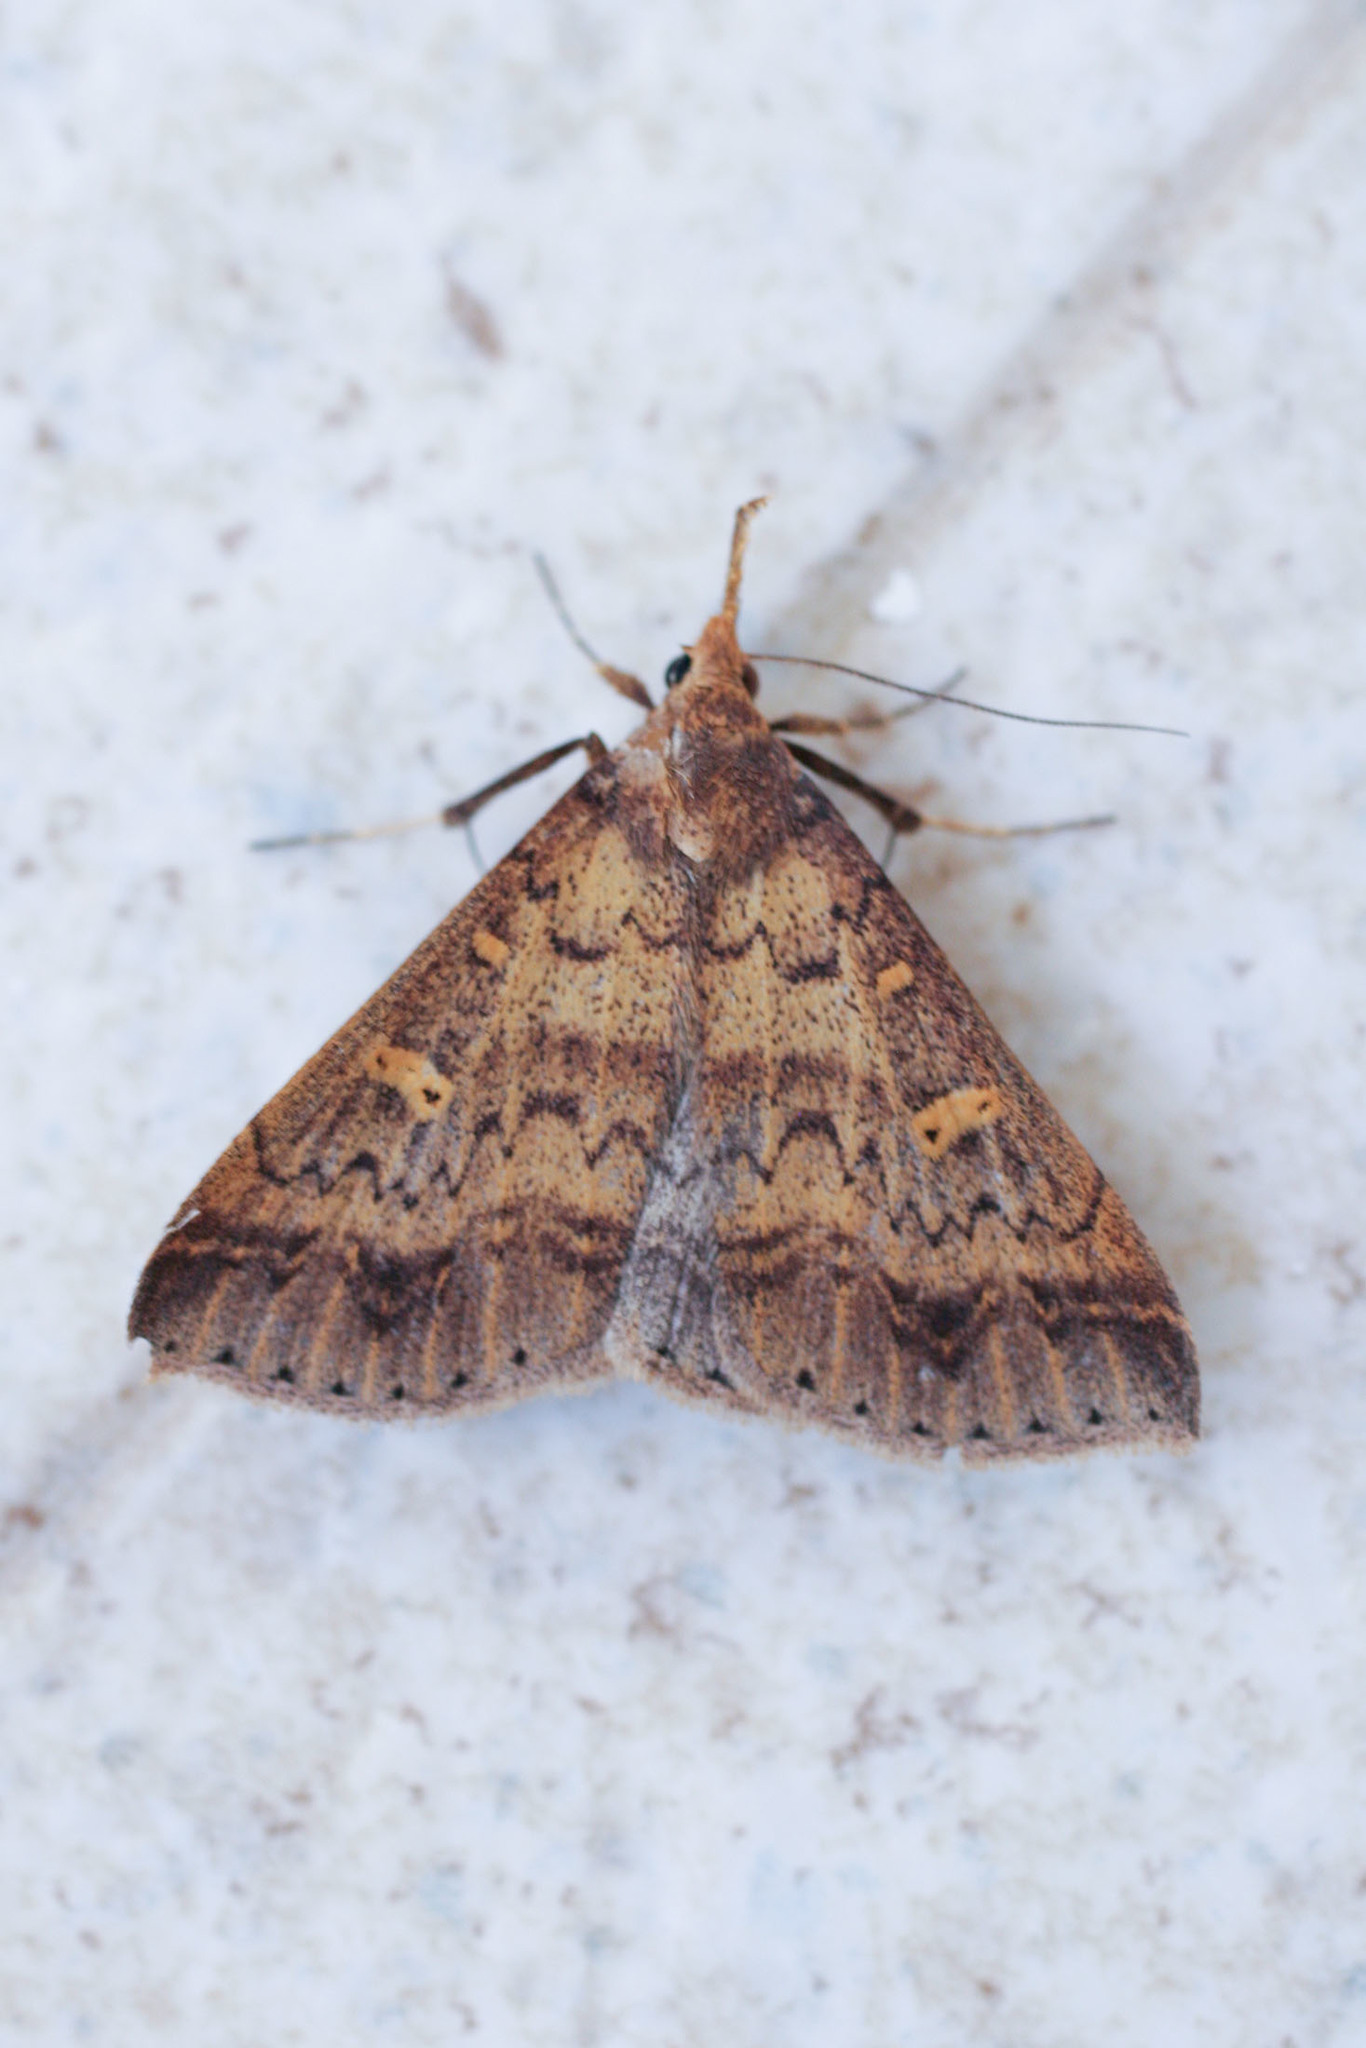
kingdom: Animalia
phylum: Arthropoda
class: Insecta
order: Lepidoptera
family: Erebidae
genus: Renia
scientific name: Renia discoloralis
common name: Discolored renia moth
